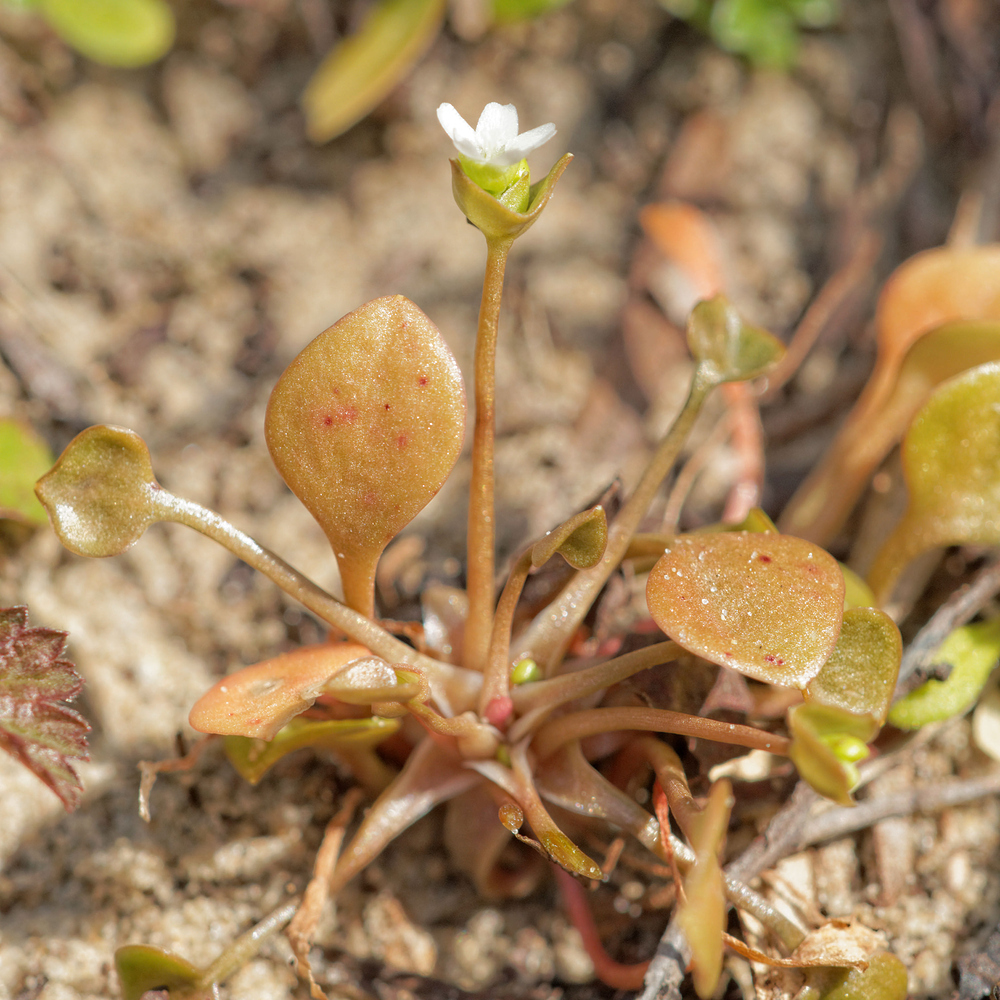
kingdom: Plantae
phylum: Tracheophyta
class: Magnoliopsida
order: Caryophyllales
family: Montiaceae
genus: Claytonia
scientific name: Claytonia perfoliata
